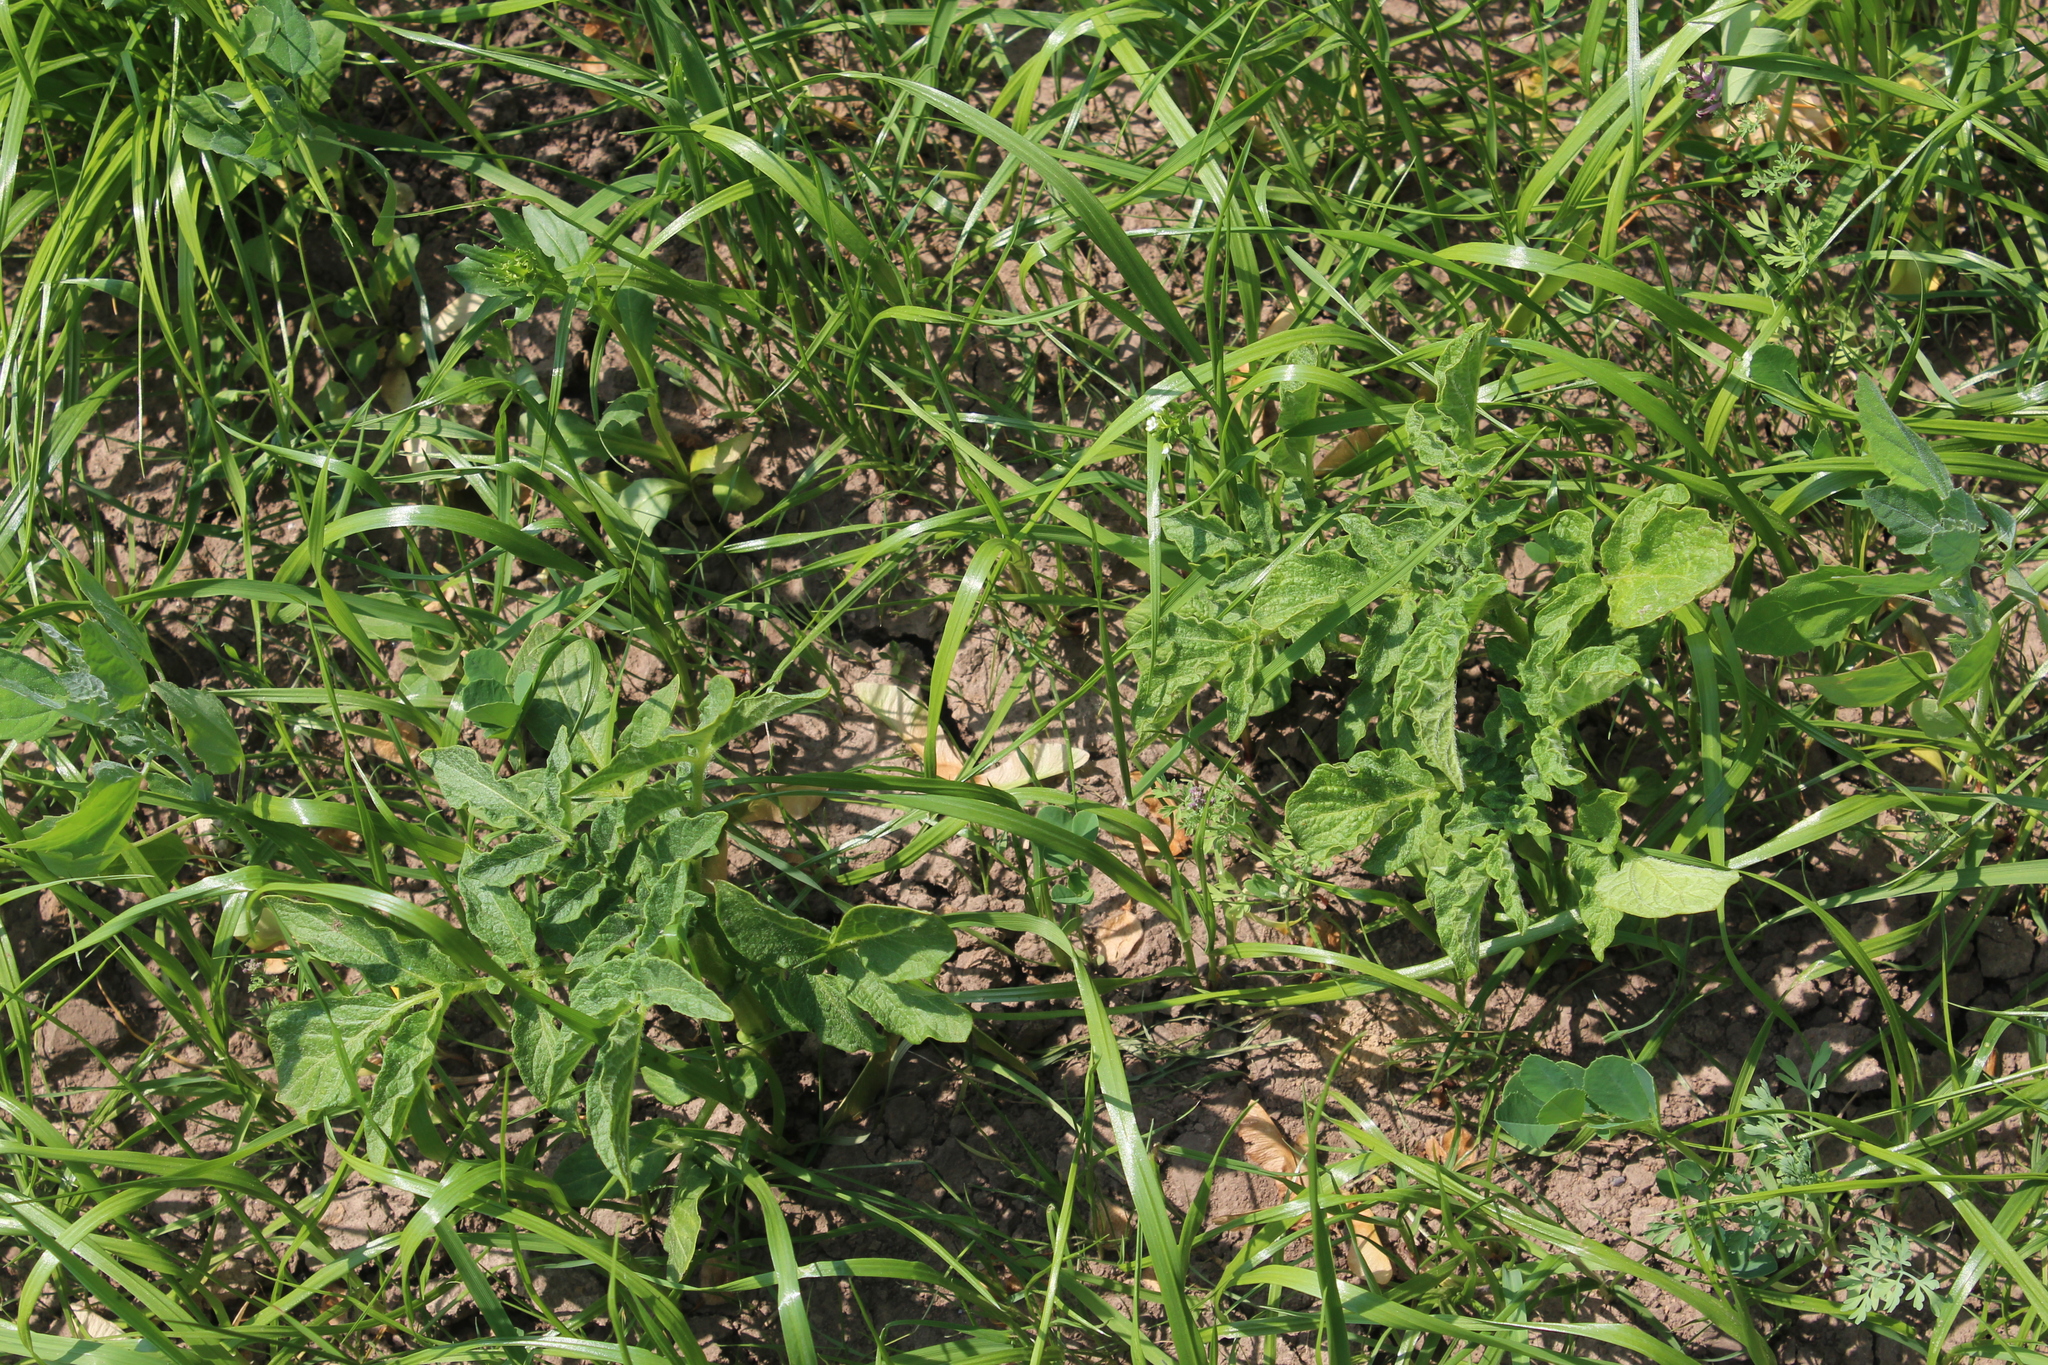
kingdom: Plantae
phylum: Tracheophyta
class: Magnoliopsida
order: Solanales
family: Solanaceae
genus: Solanum
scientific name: Solanum tuberosum
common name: Potato
